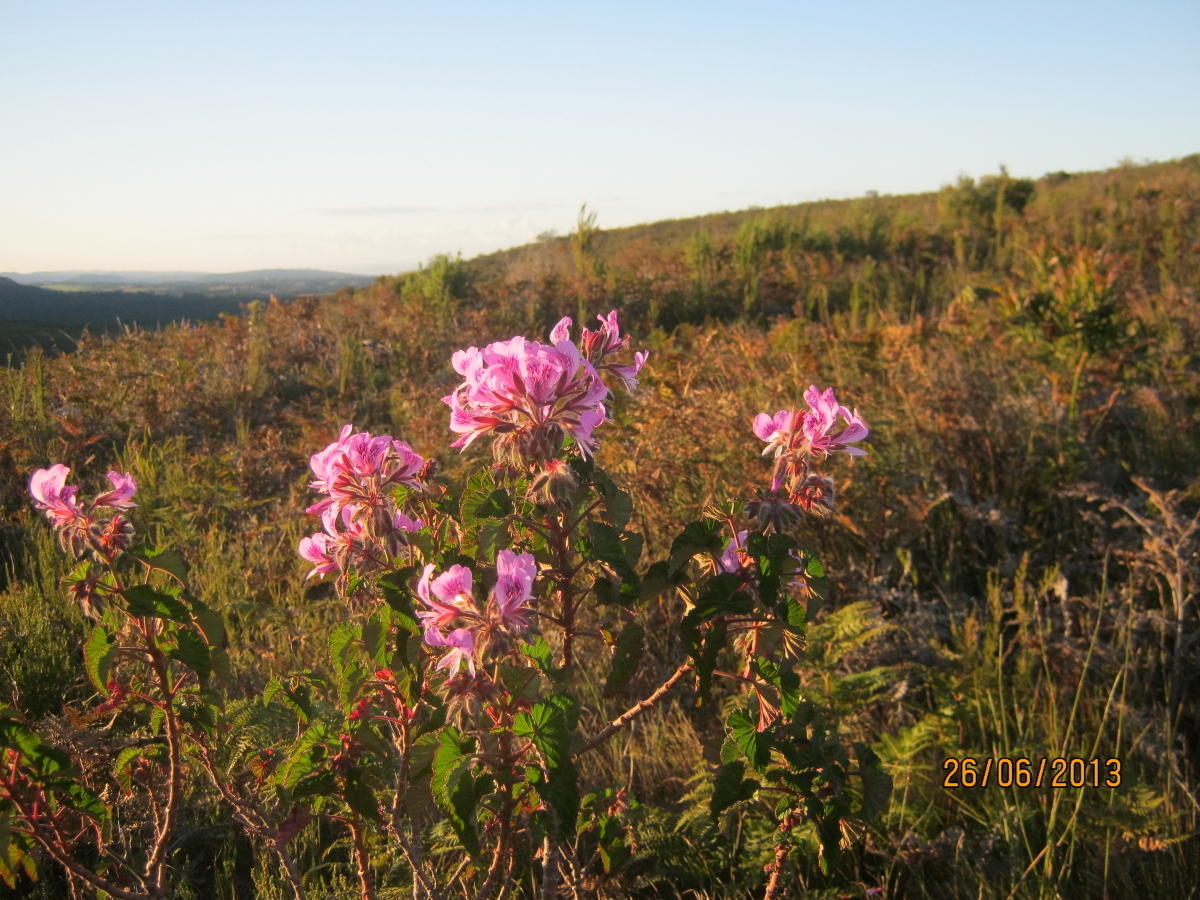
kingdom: Plantae
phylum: Tracheophyta
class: Magnoliopsida
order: Geraniales
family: Geraniaceae
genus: Pelargonium
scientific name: Pelargonium cordifolium
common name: Heart-leaf pelargonium
